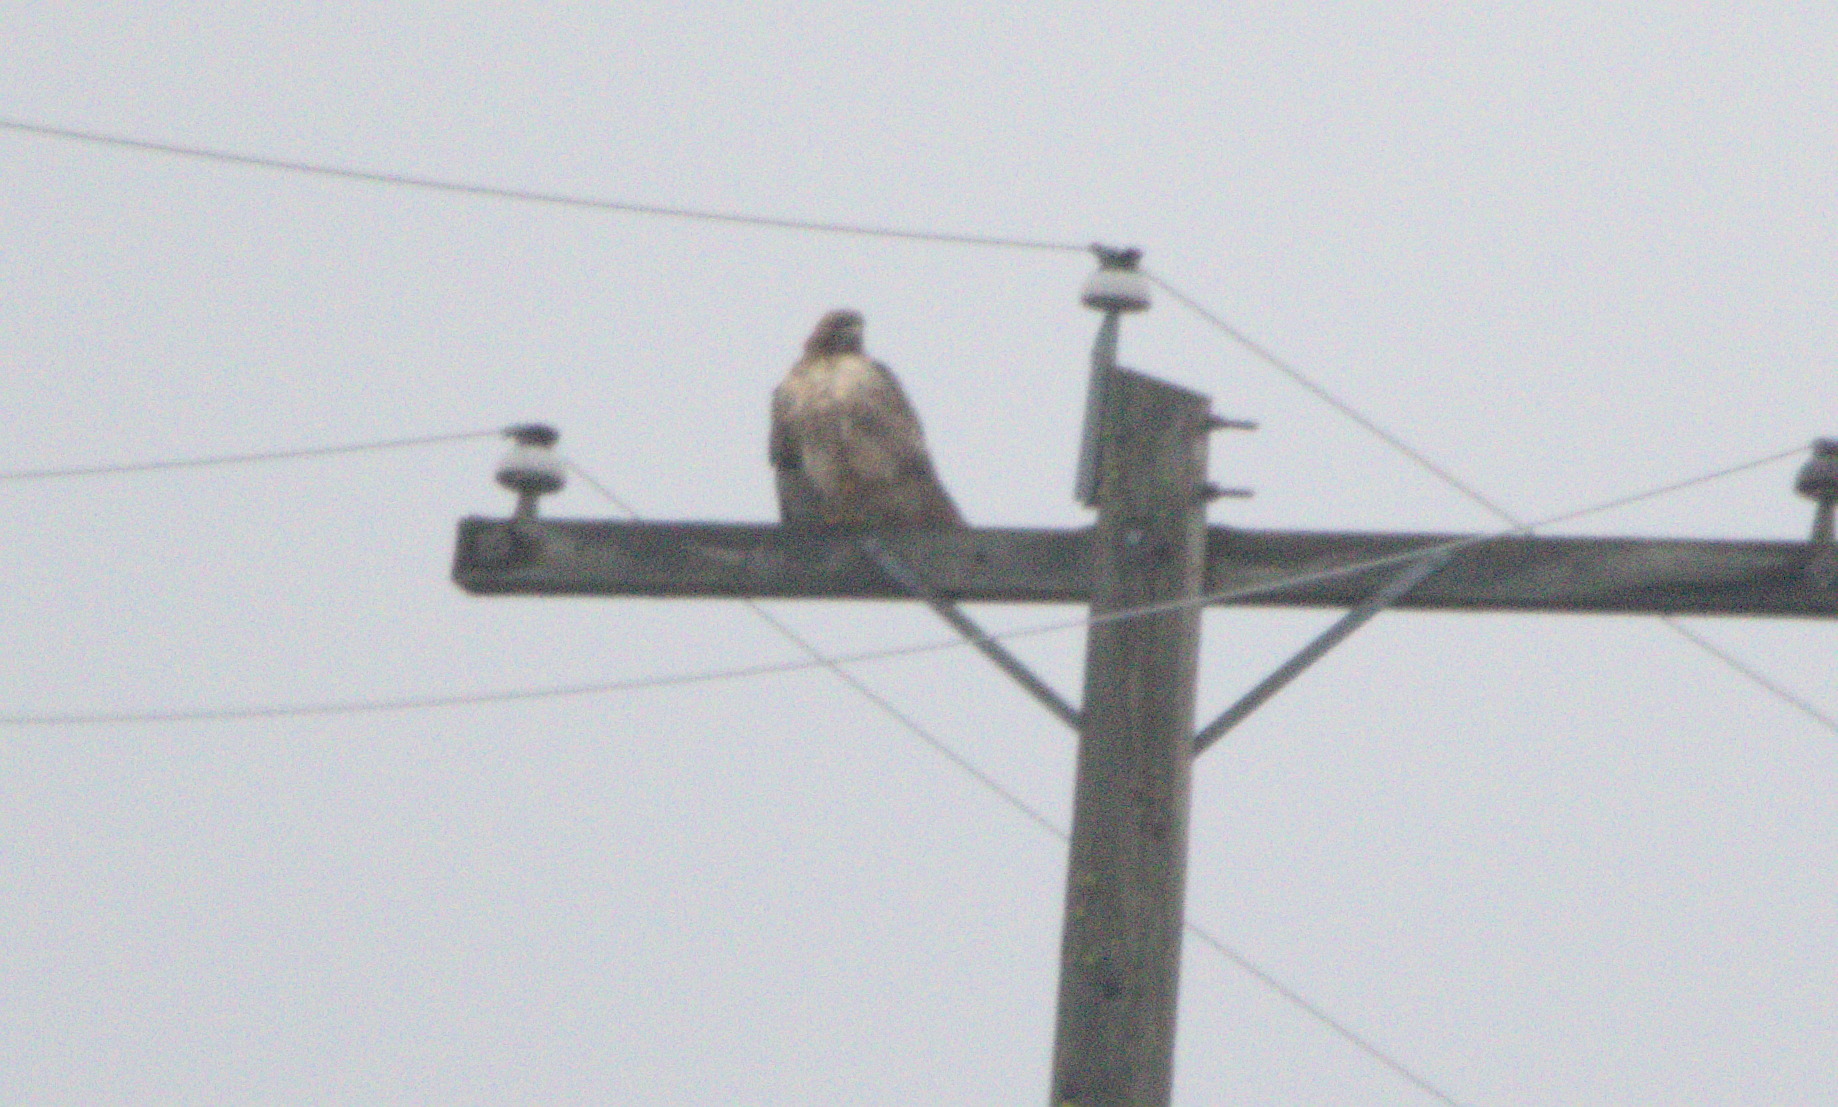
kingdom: Animalia
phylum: Chordata
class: Aves
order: Accipitriformes
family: Accipitridae
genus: Buteo
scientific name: Buteo jamaicensis
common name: Red-tailed hawk
